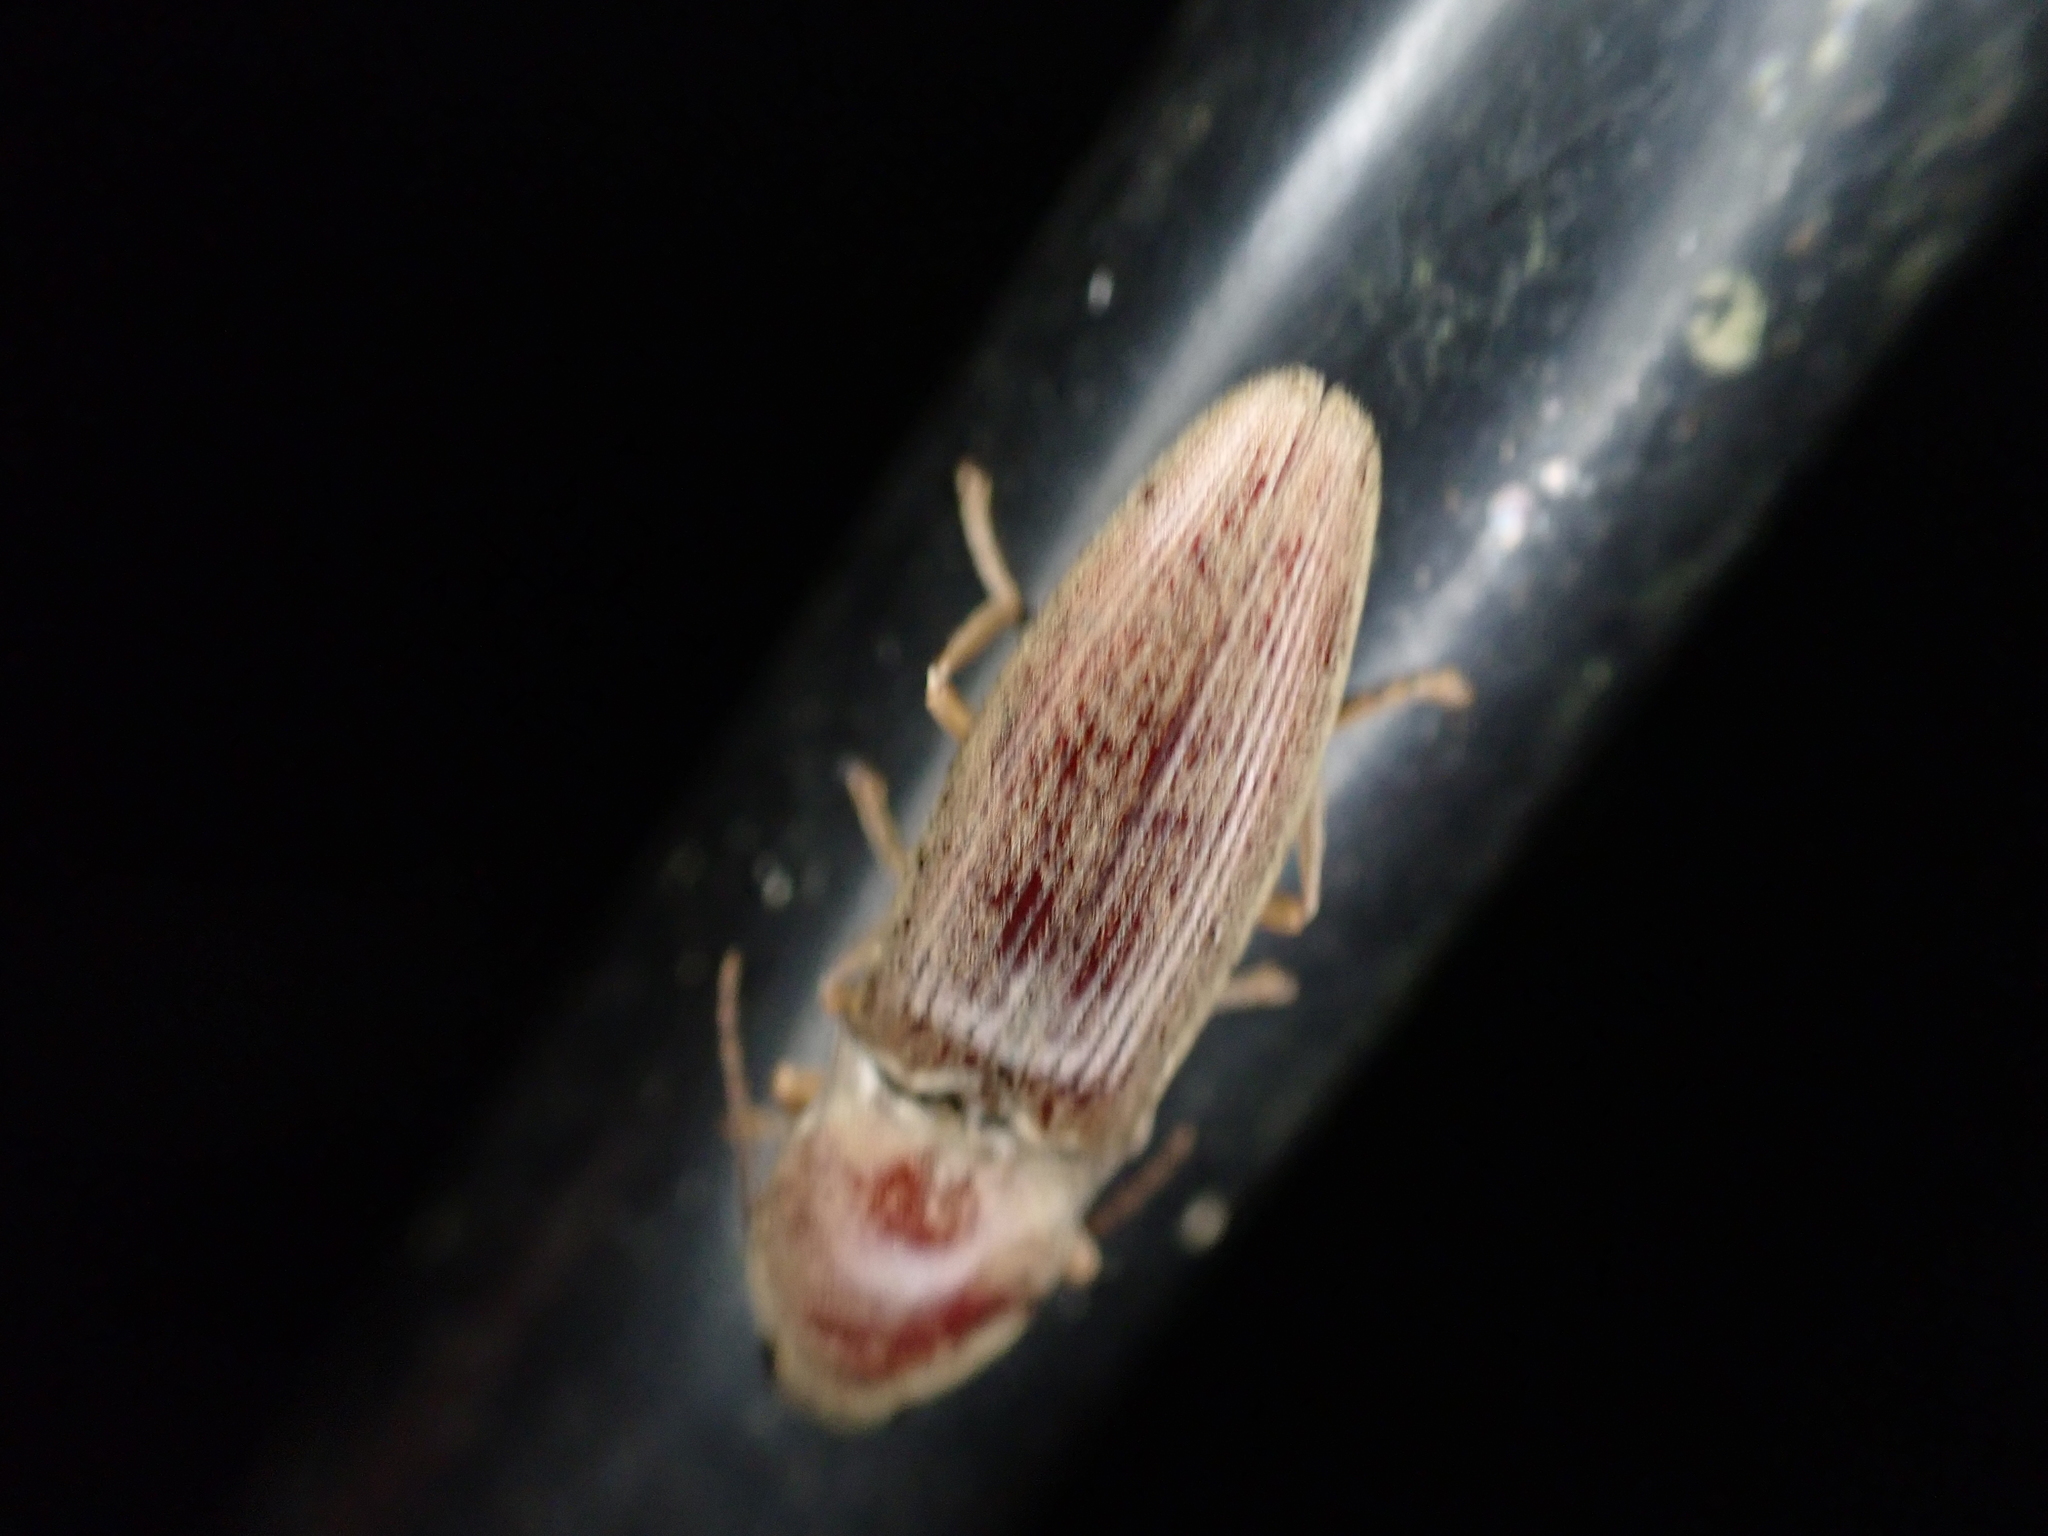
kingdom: Animalia
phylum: Arthropoda
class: Insecta
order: Coleoptera
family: Elateridae
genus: Monocrepidius
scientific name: Monocrepidius lividus
